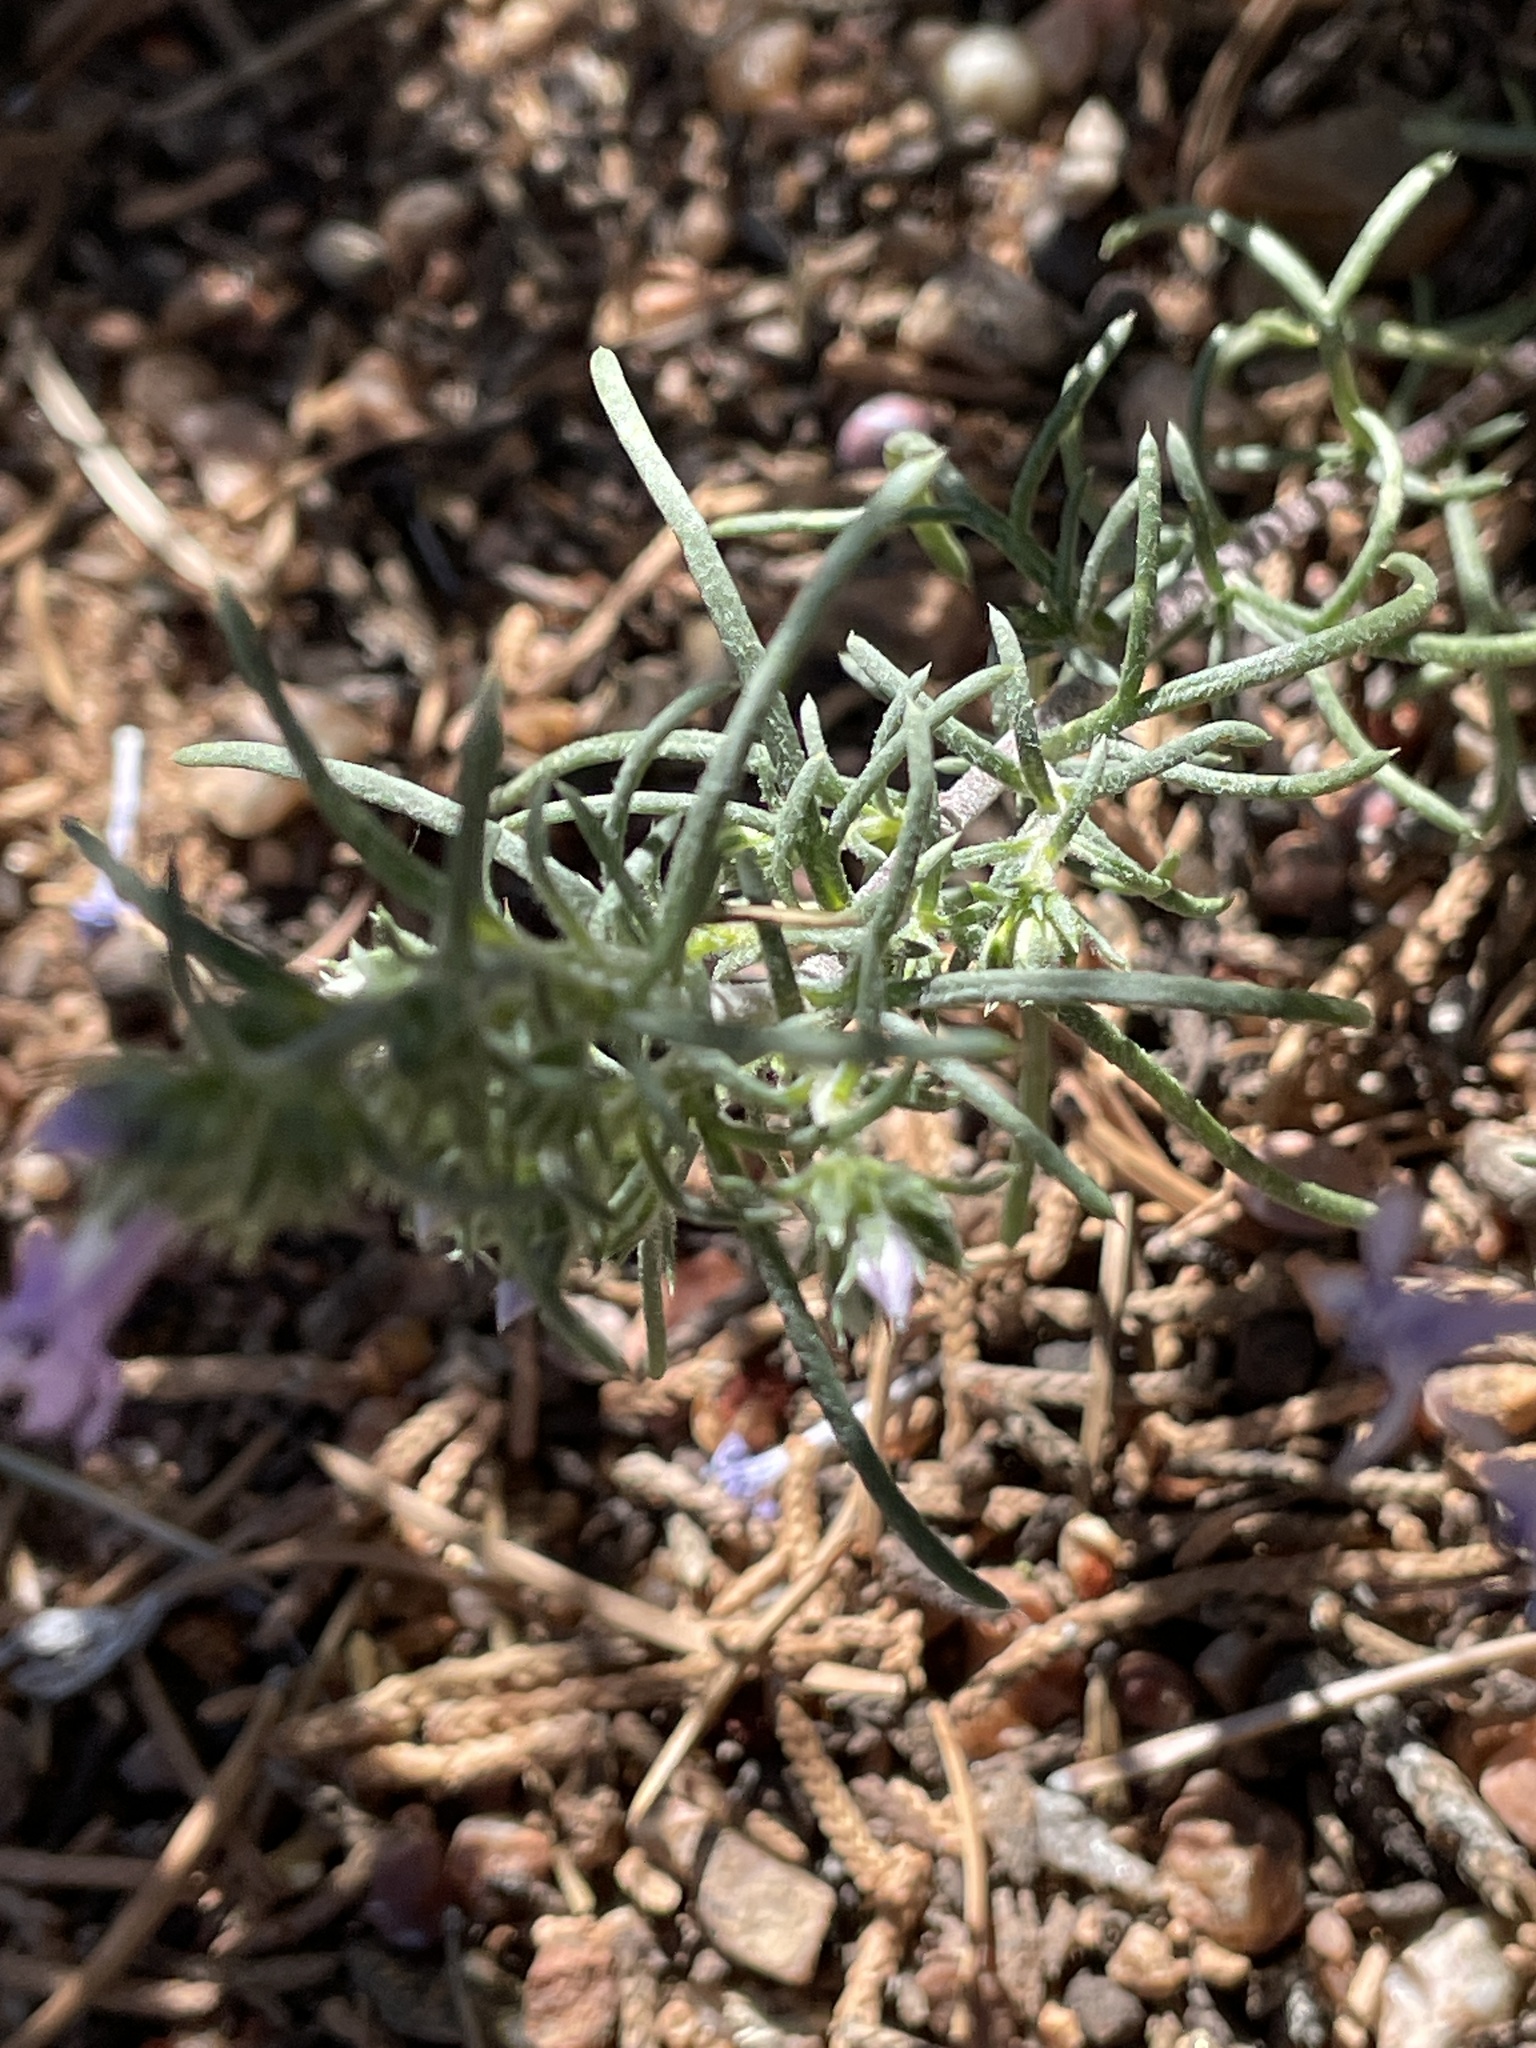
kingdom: Plantae
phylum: Tracheophyta
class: Magnoliopsida
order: Ericales
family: Polemoniaceae
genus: Ipomopsis
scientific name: Ipomopsis multiflora
